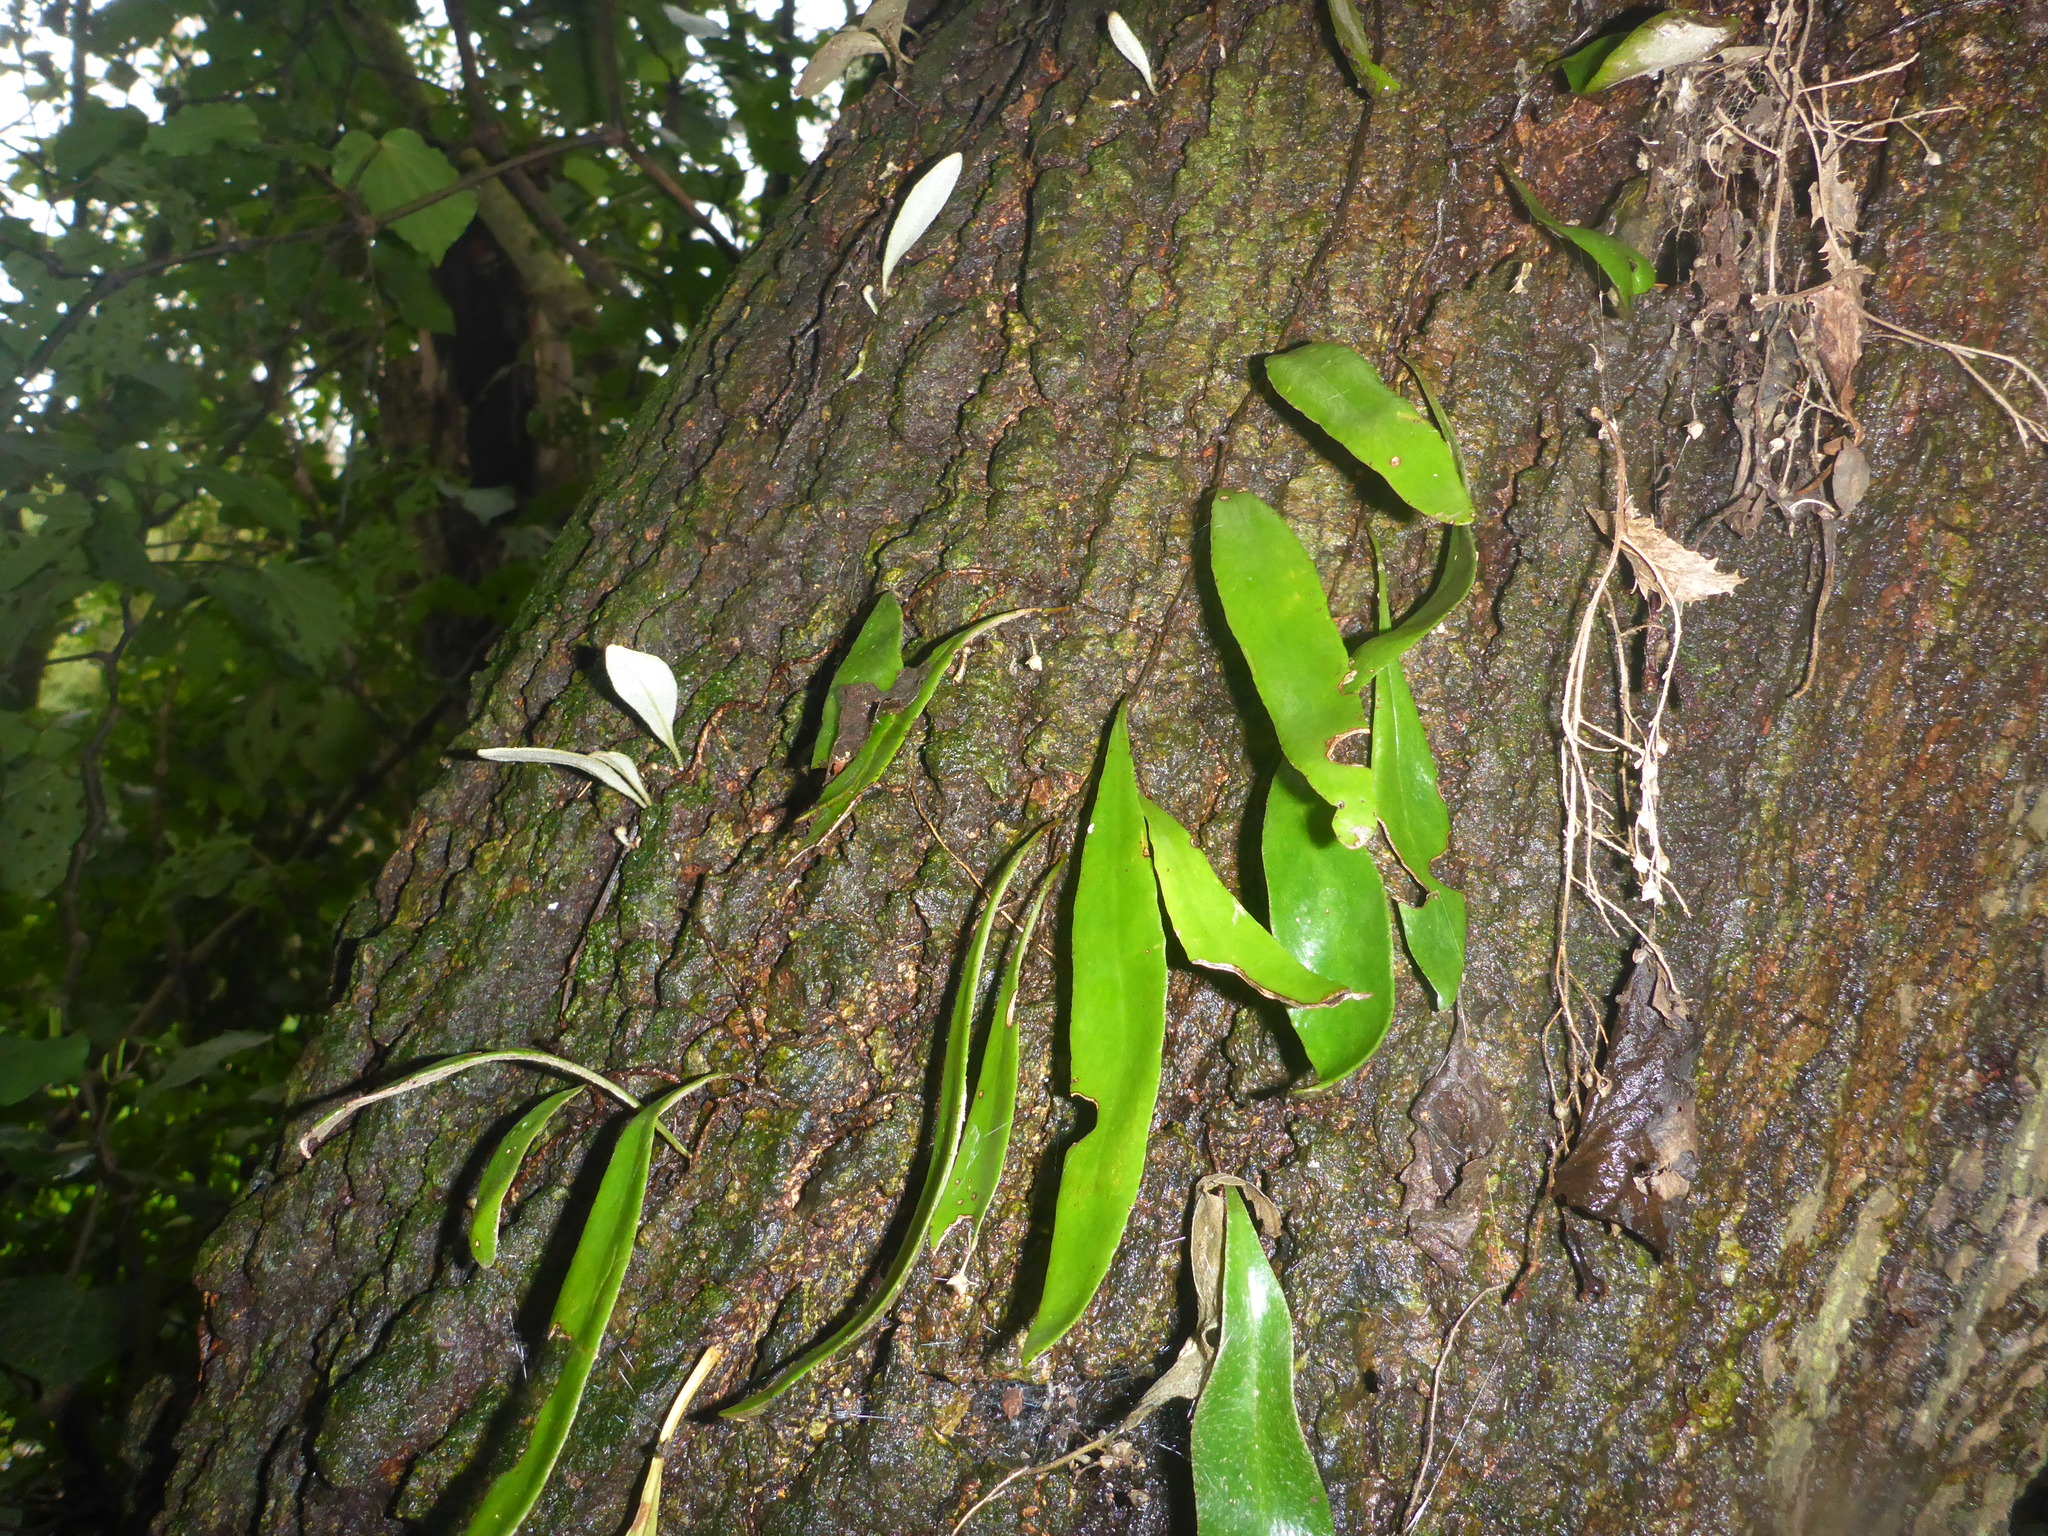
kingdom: Plantae
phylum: Tracheophyta
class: Polypodiopsida
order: Polypodiales
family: Polypodiaceae
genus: Pyrrosia
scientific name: Pyrrosia eleagnifolia
